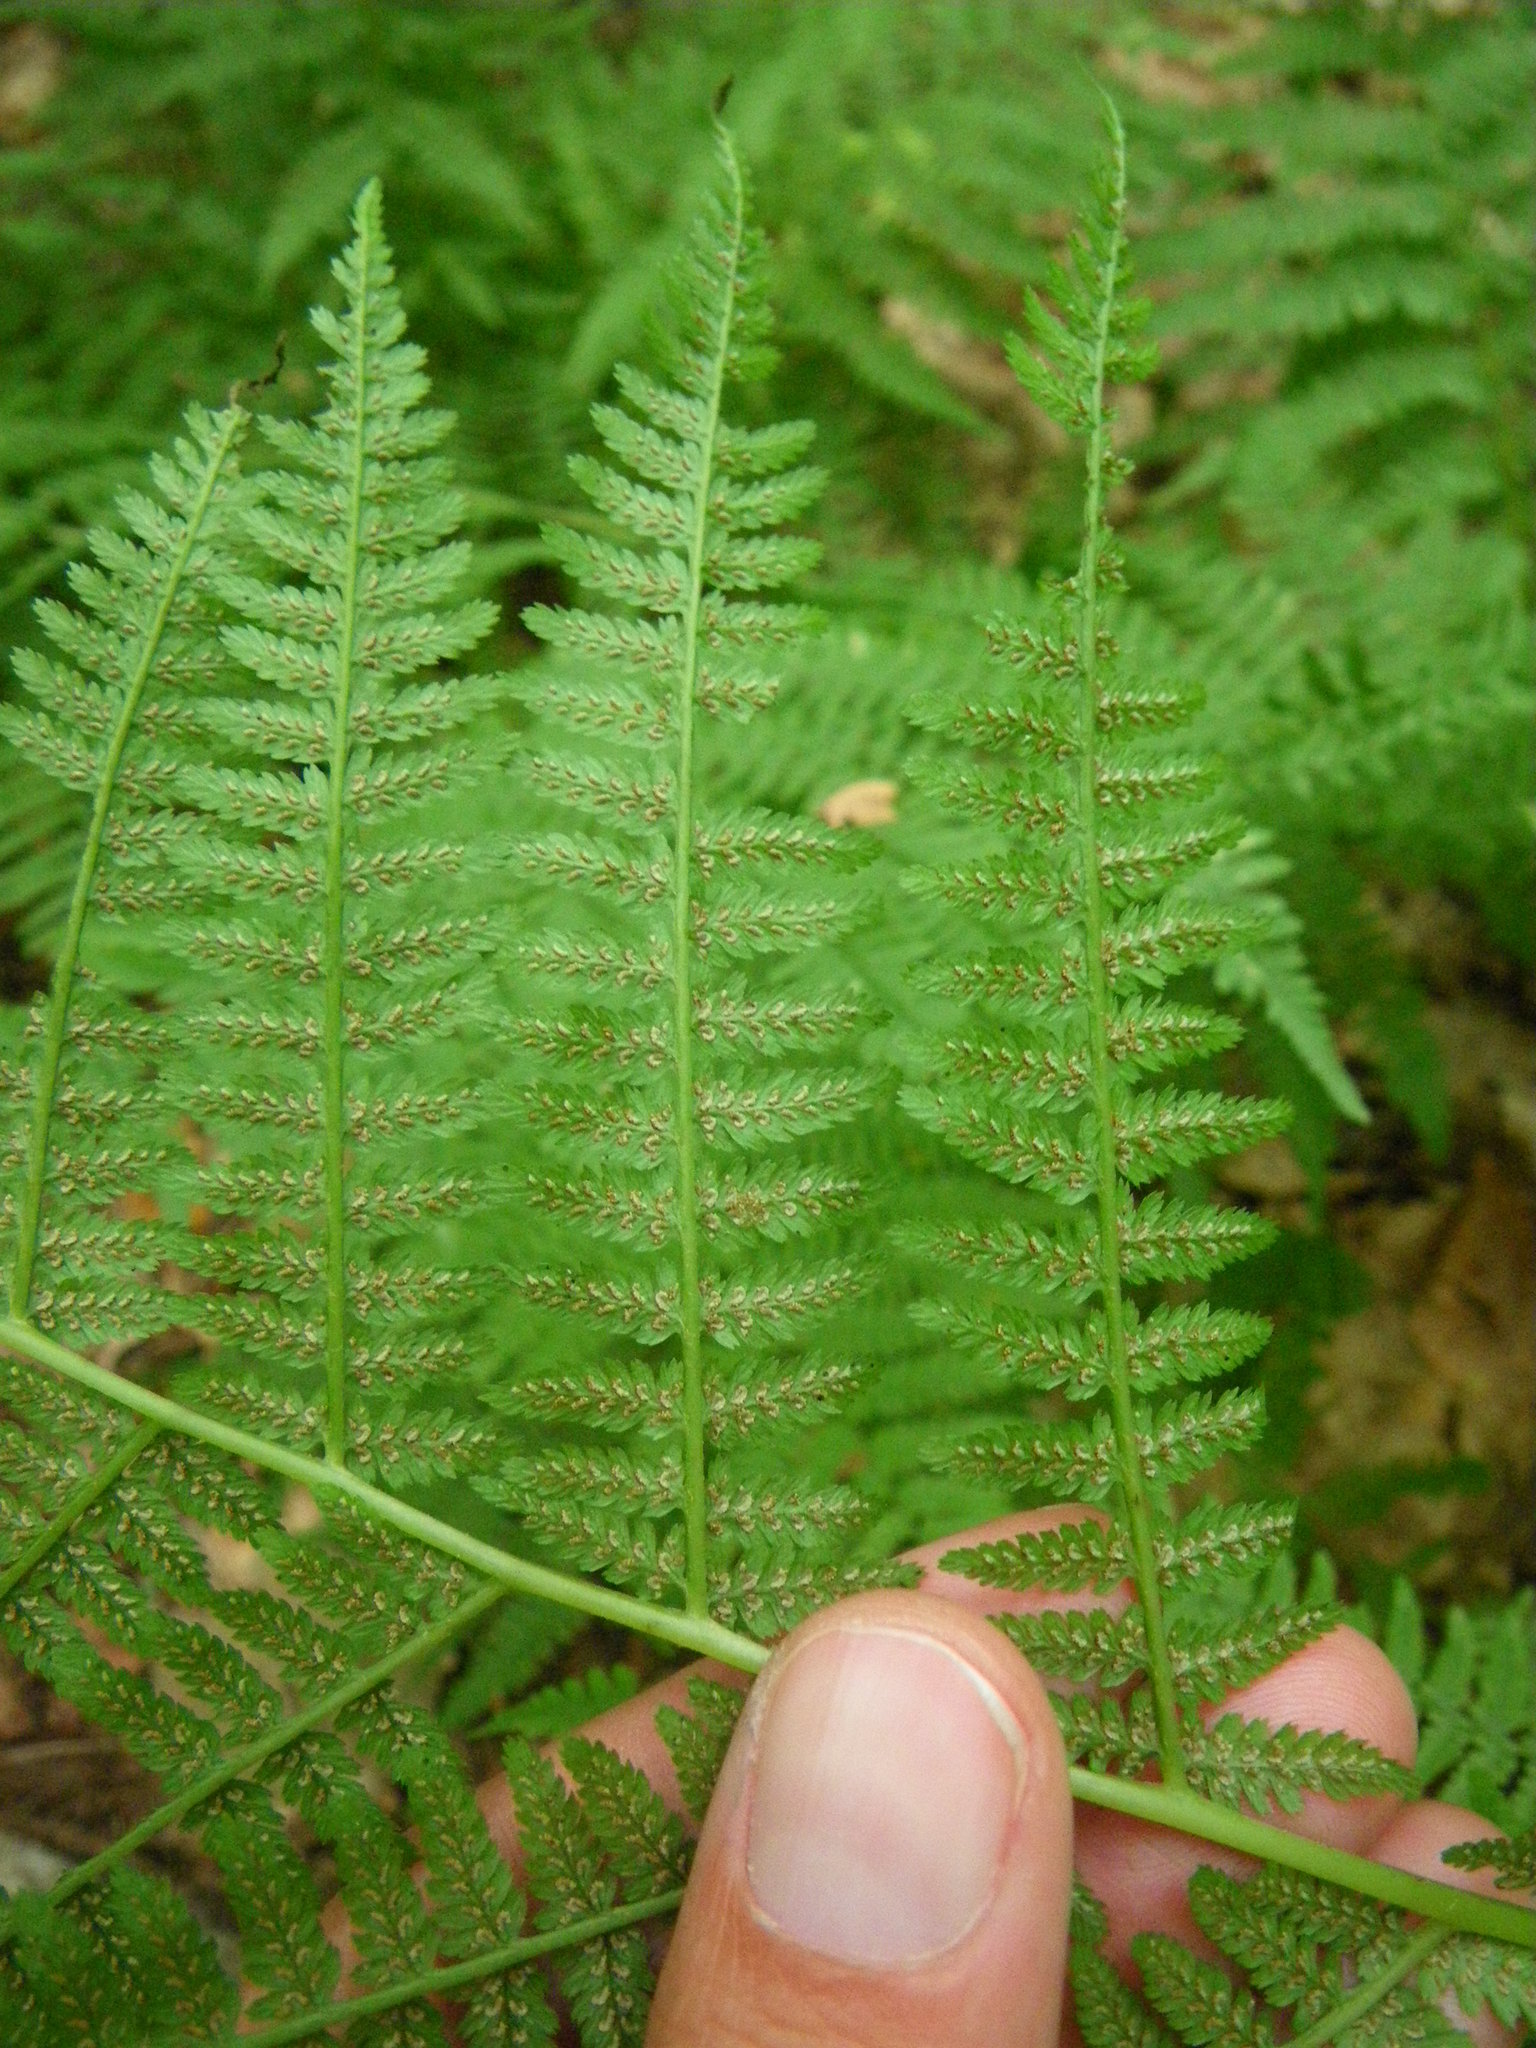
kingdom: Plantae
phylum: Tracheophyta
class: Polypodiopsida
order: Polypodiales
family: Athyriaceae
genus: Athyrium
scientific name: Athyrium angustum
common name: Northern lady fern
